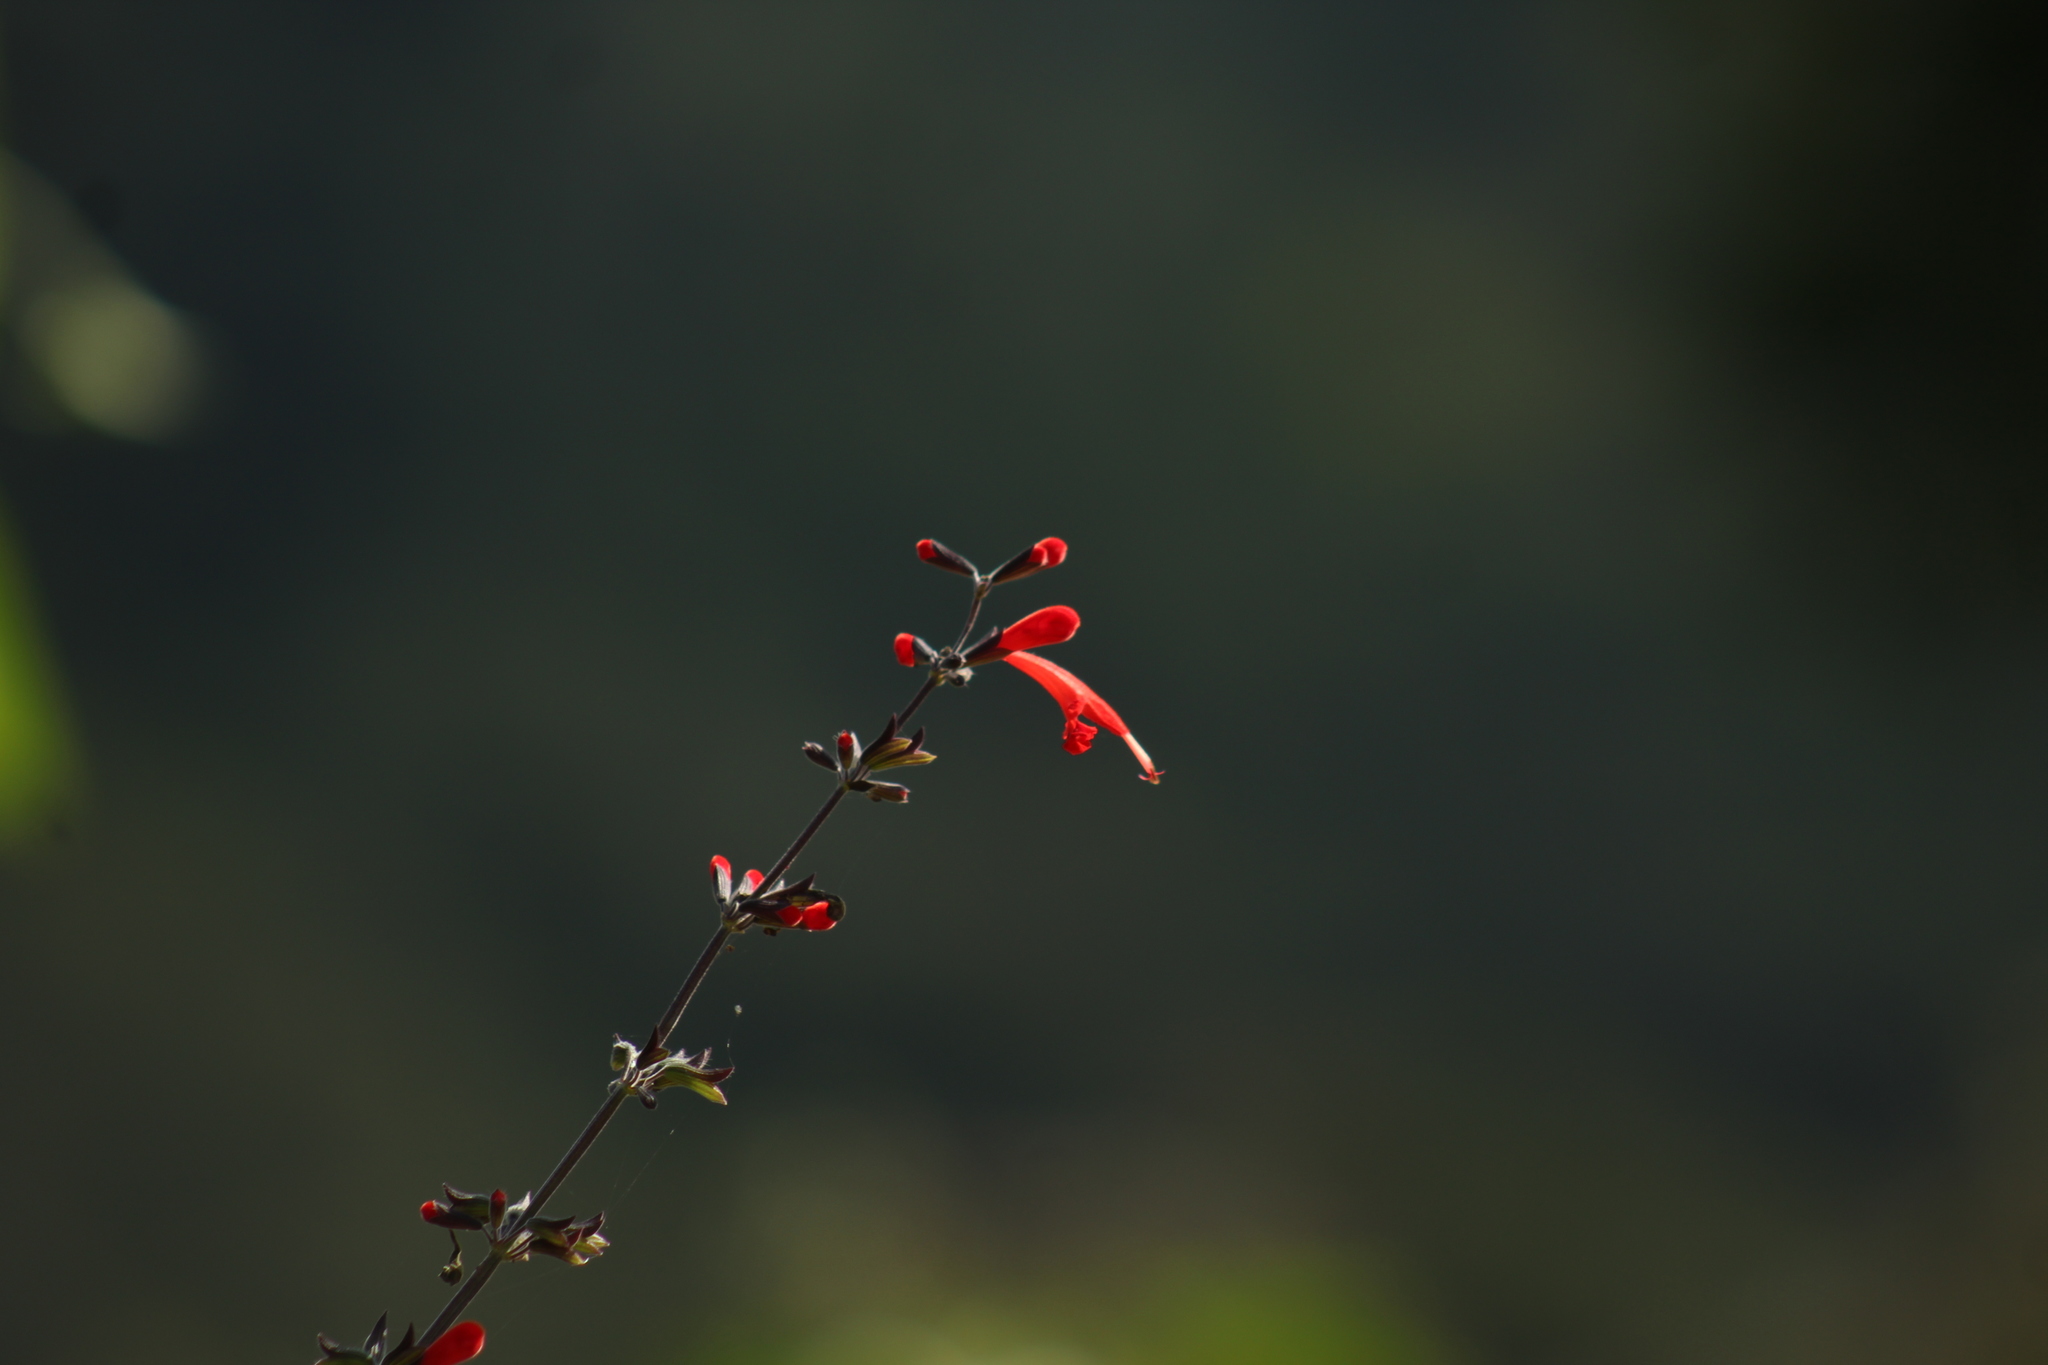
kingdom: Plantae
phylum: Tracheophyta
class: Magnoliopsida
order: Lamiales
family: Lamiaceae
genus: Salvia
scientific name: Salvia coccinea
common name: Blood sage
